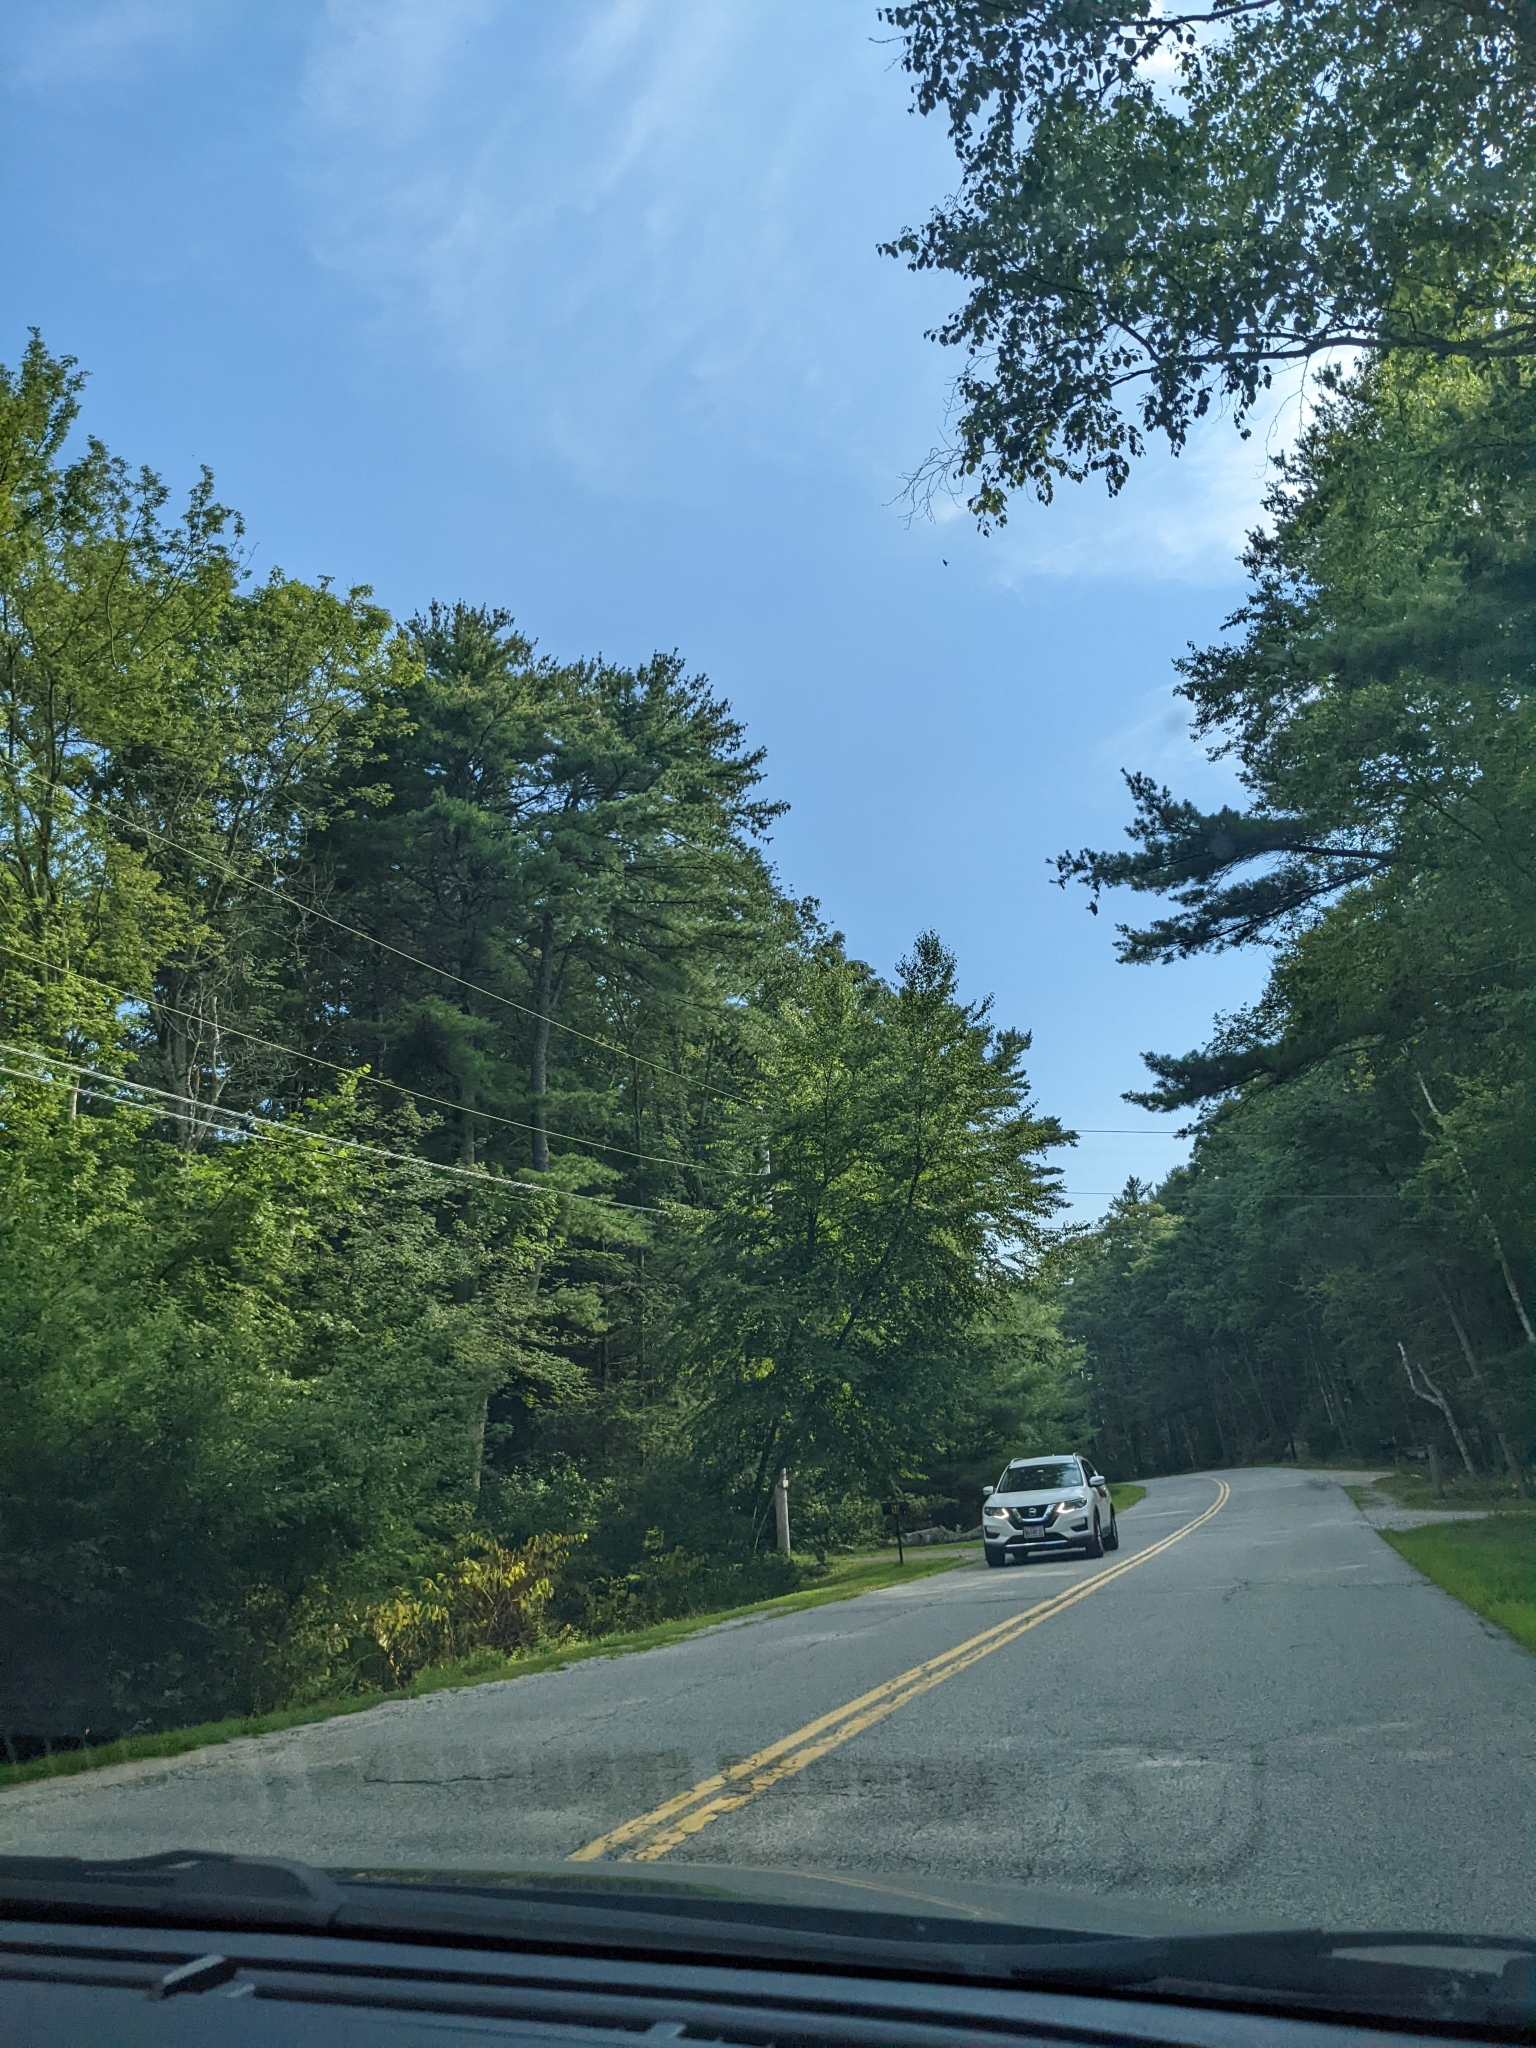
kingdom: Plantae
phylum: Tracheophyta
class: Pinopsida
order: Pinales
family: Pinaceae
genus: Pinus
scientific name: Pinus strobus
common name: Weymouth pine
